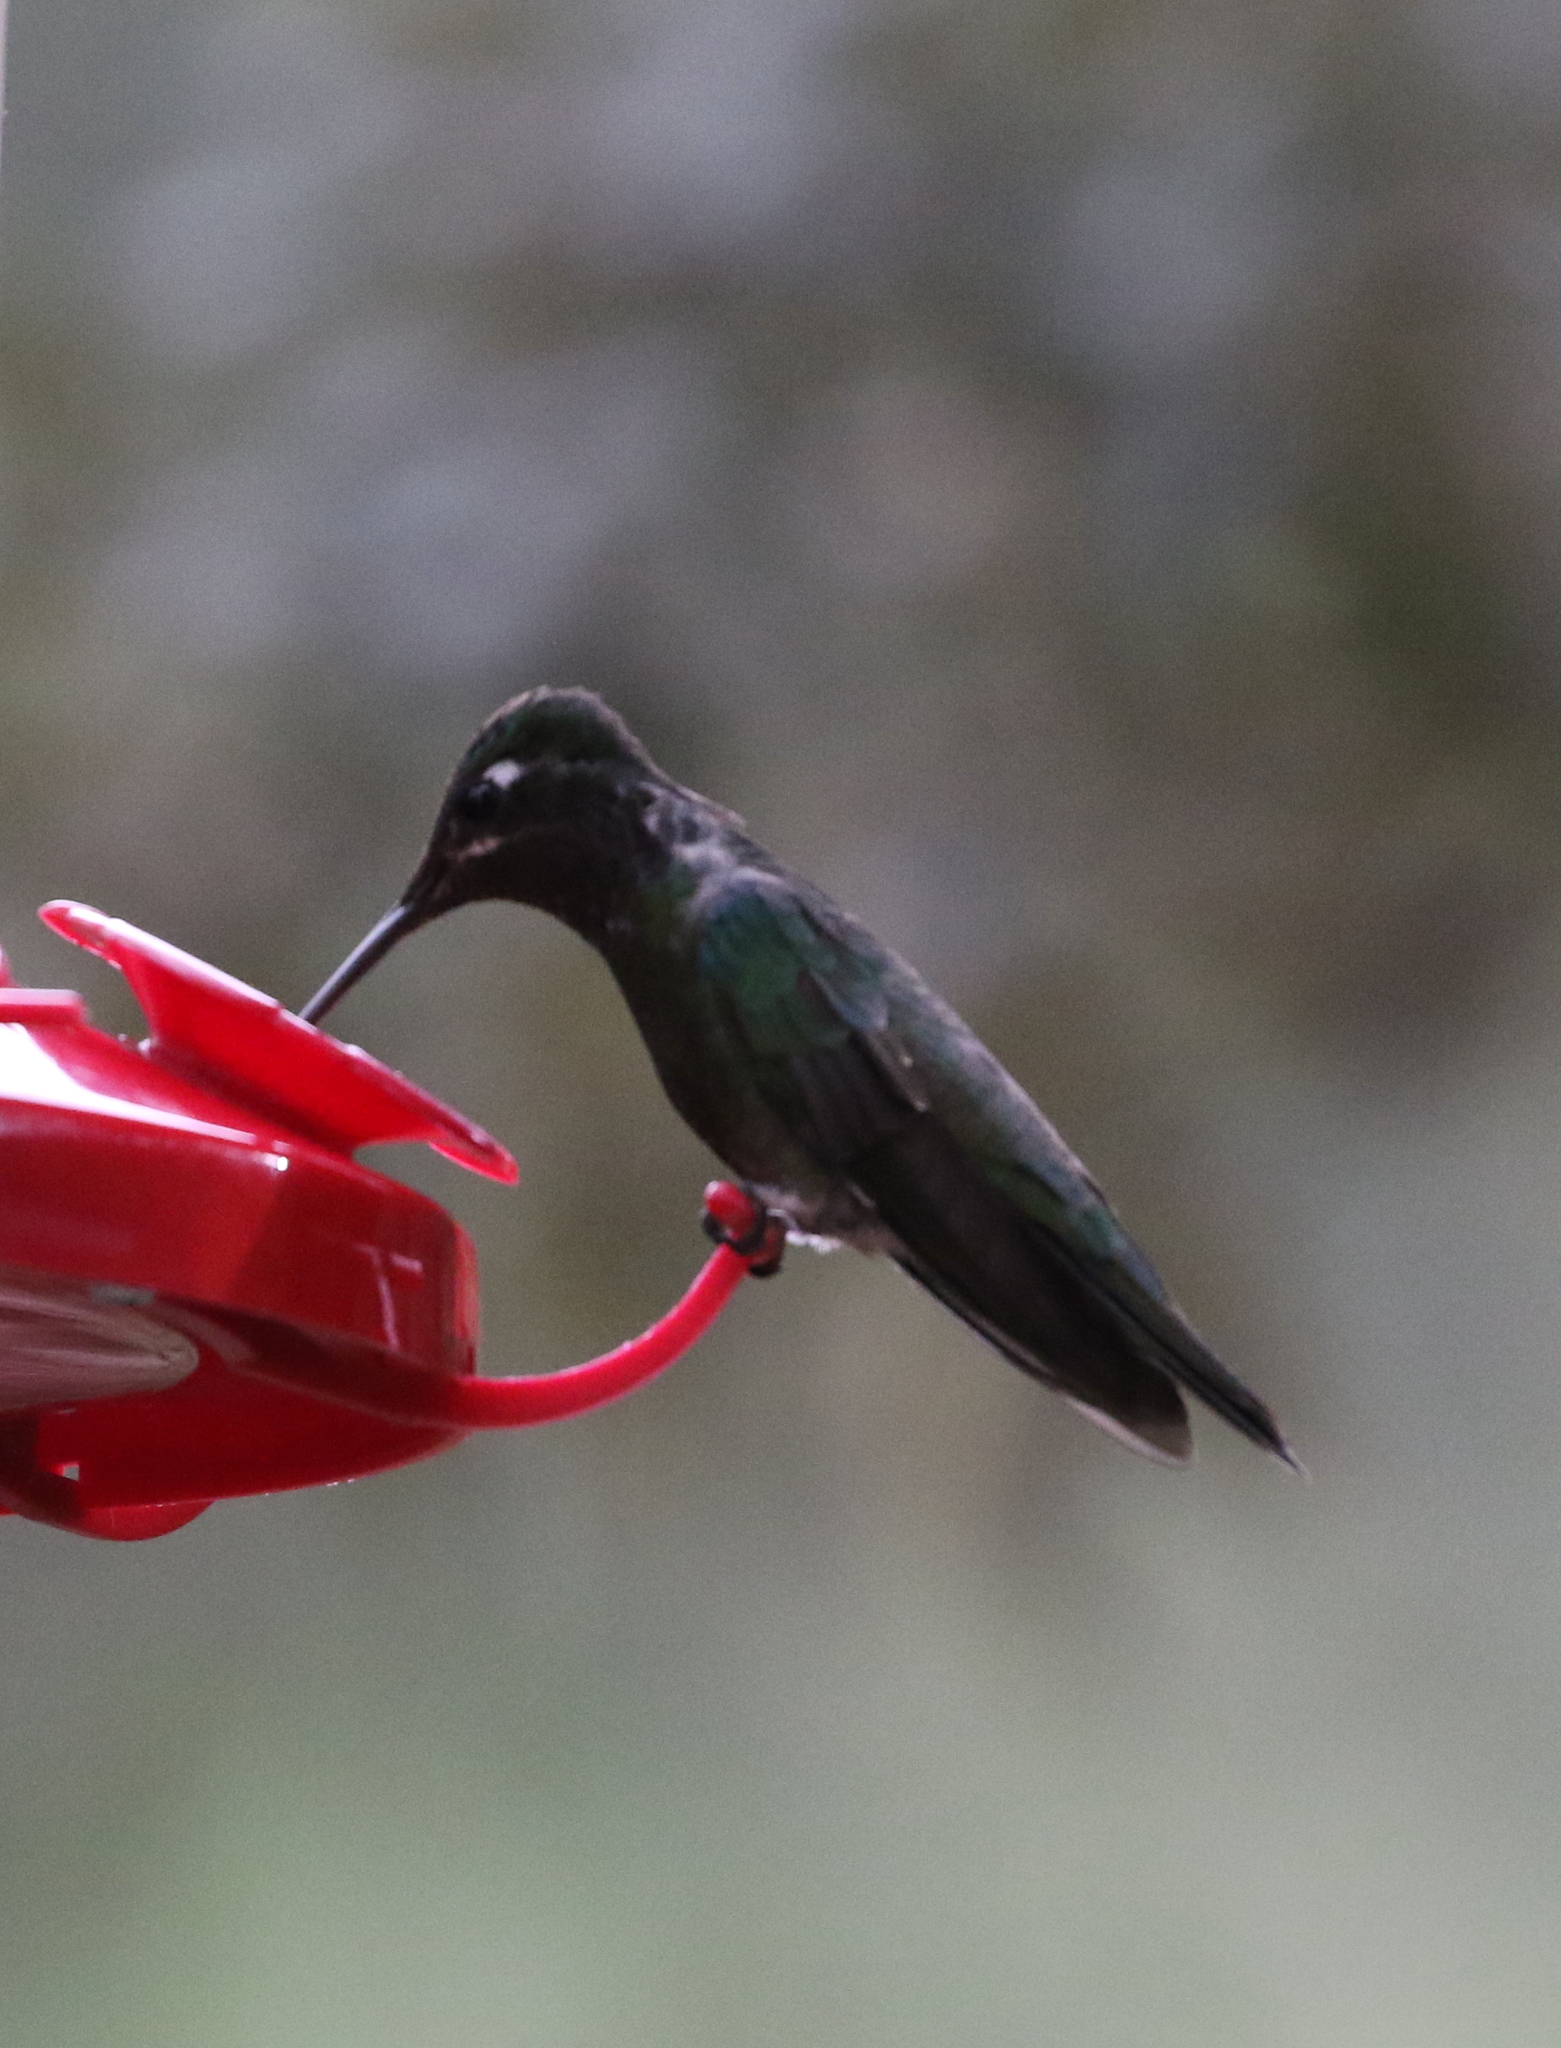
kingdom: Animalia
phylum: Chordata
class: Aves
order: Apodiformes
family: Trochilidae
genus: Eugenes
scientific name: Eugenes fulgens
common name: Magnificent hummingbird
